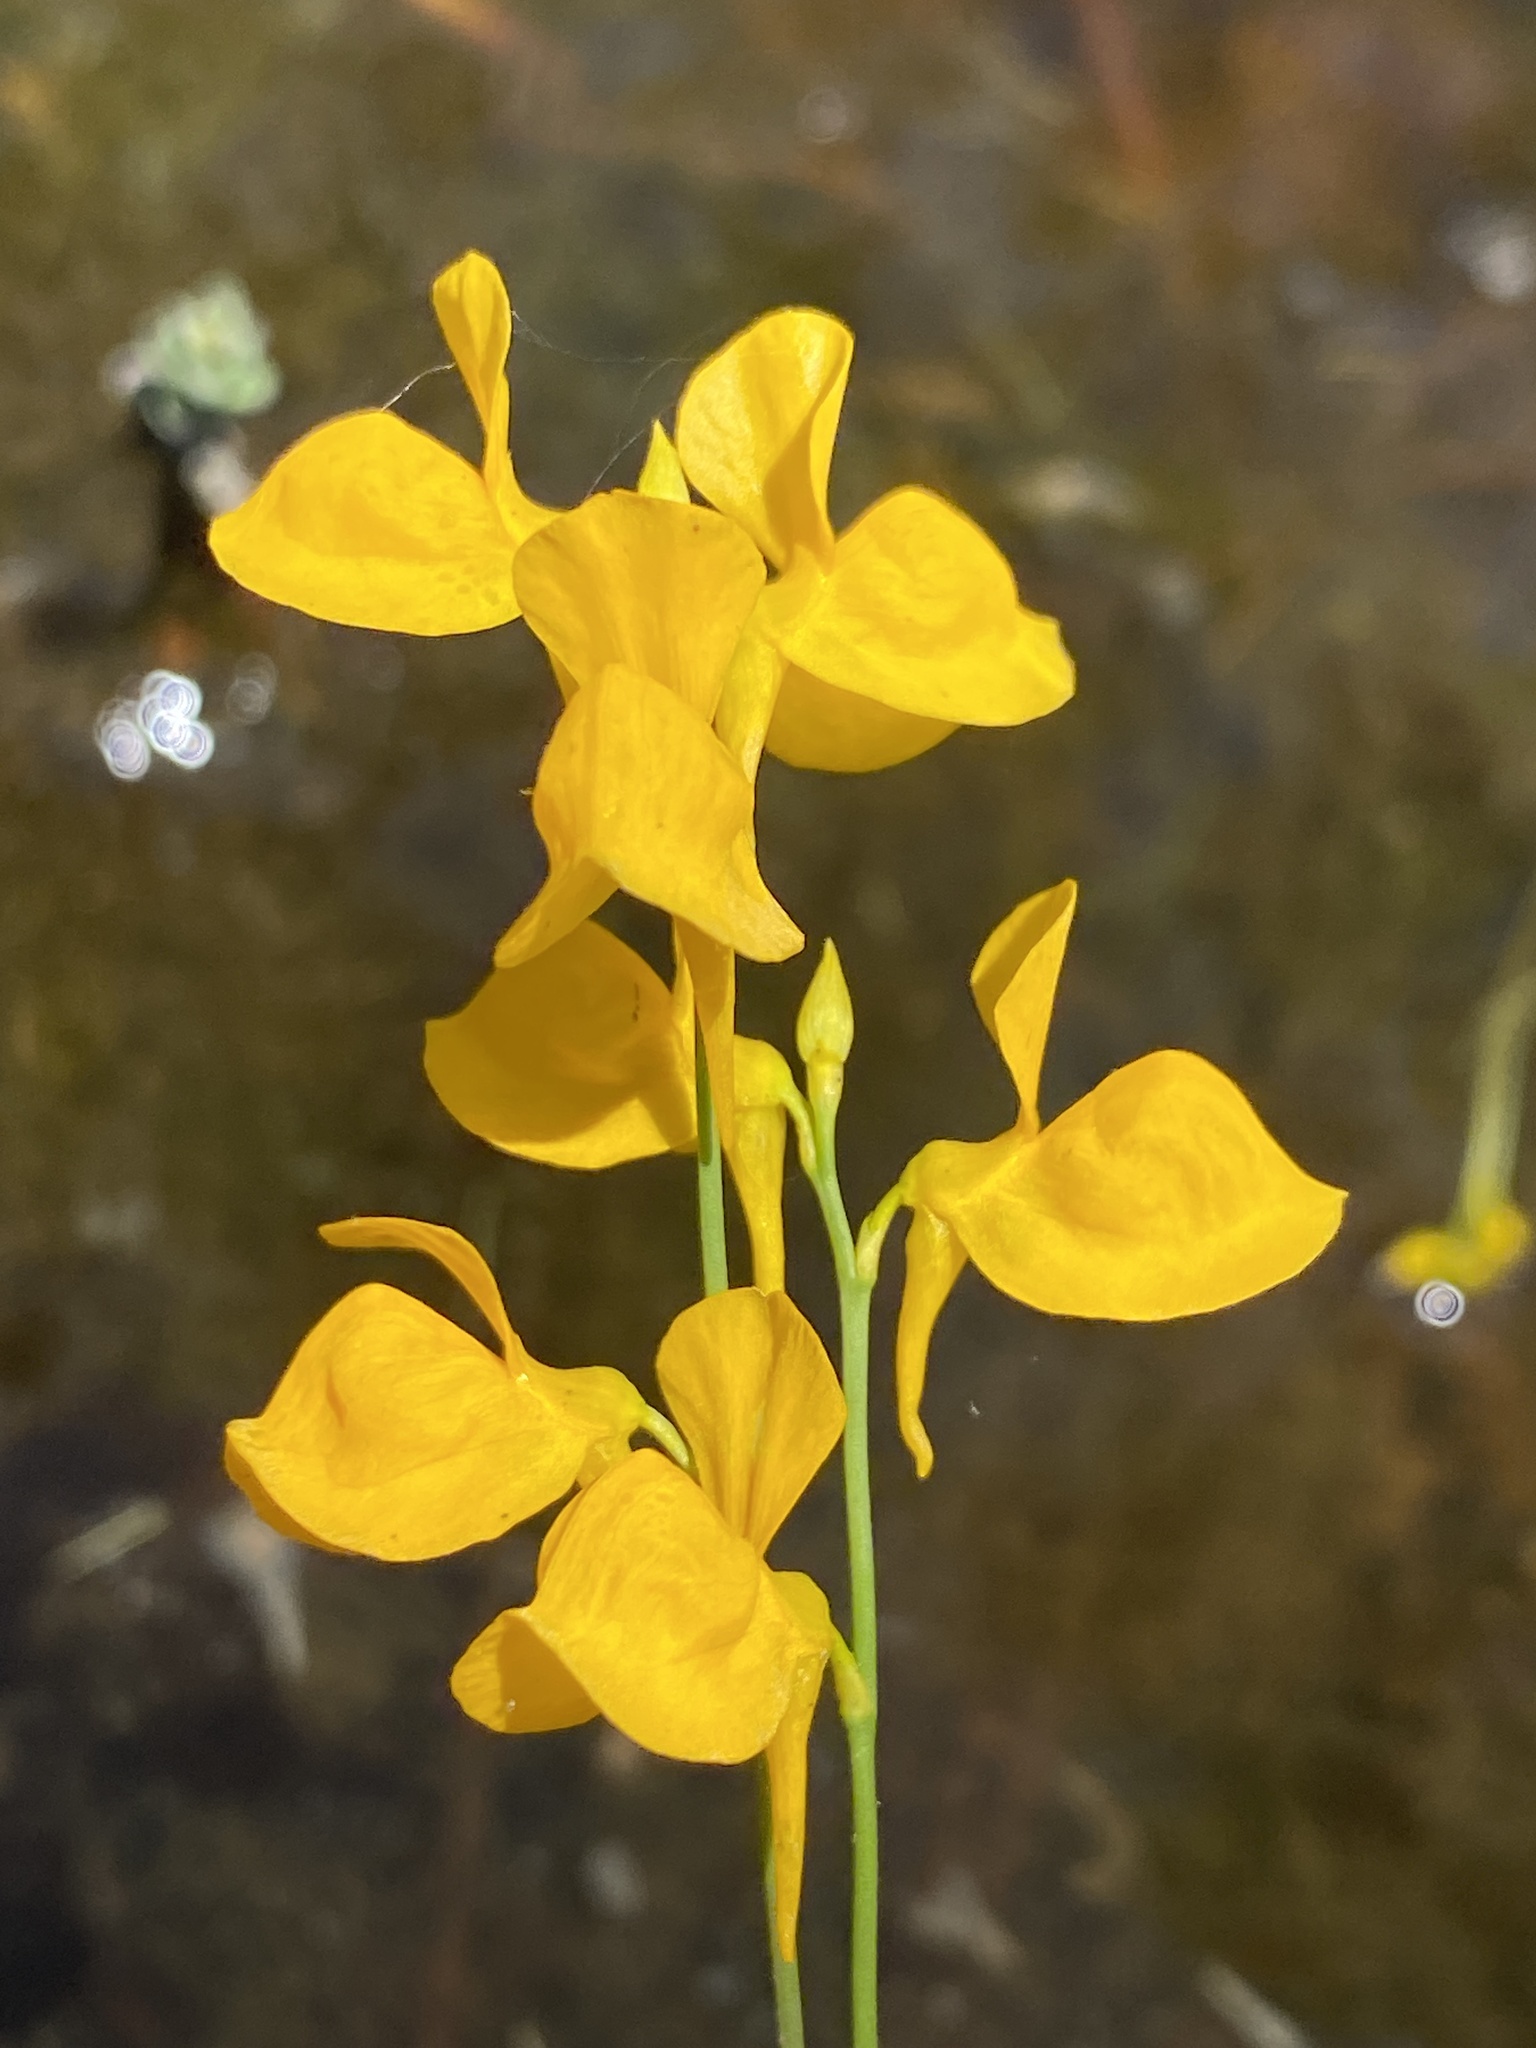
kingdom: Plantae
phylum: Tracheophyta
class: Magnoliopsida
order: Lamiales
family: Lentibulariaceae
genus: Utricularia
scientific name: Utricularia cornuta
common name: Horned bladderwort
